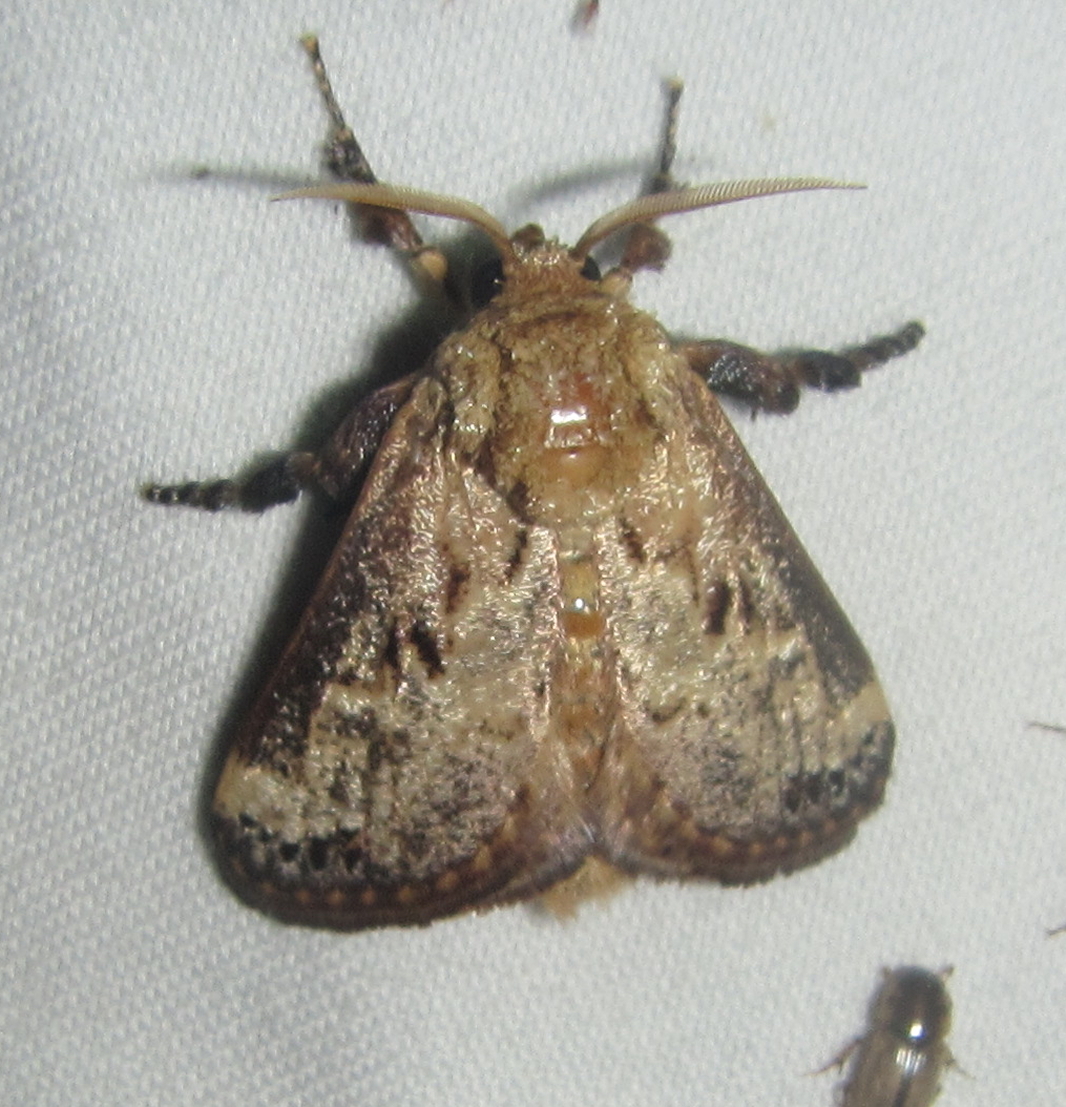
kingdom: Animalia
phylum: Arthropoda
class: Insecta
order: Lepidoptera
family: Limacodidae
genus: Scotinochroa
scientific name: Scotinochroa inconsequens
